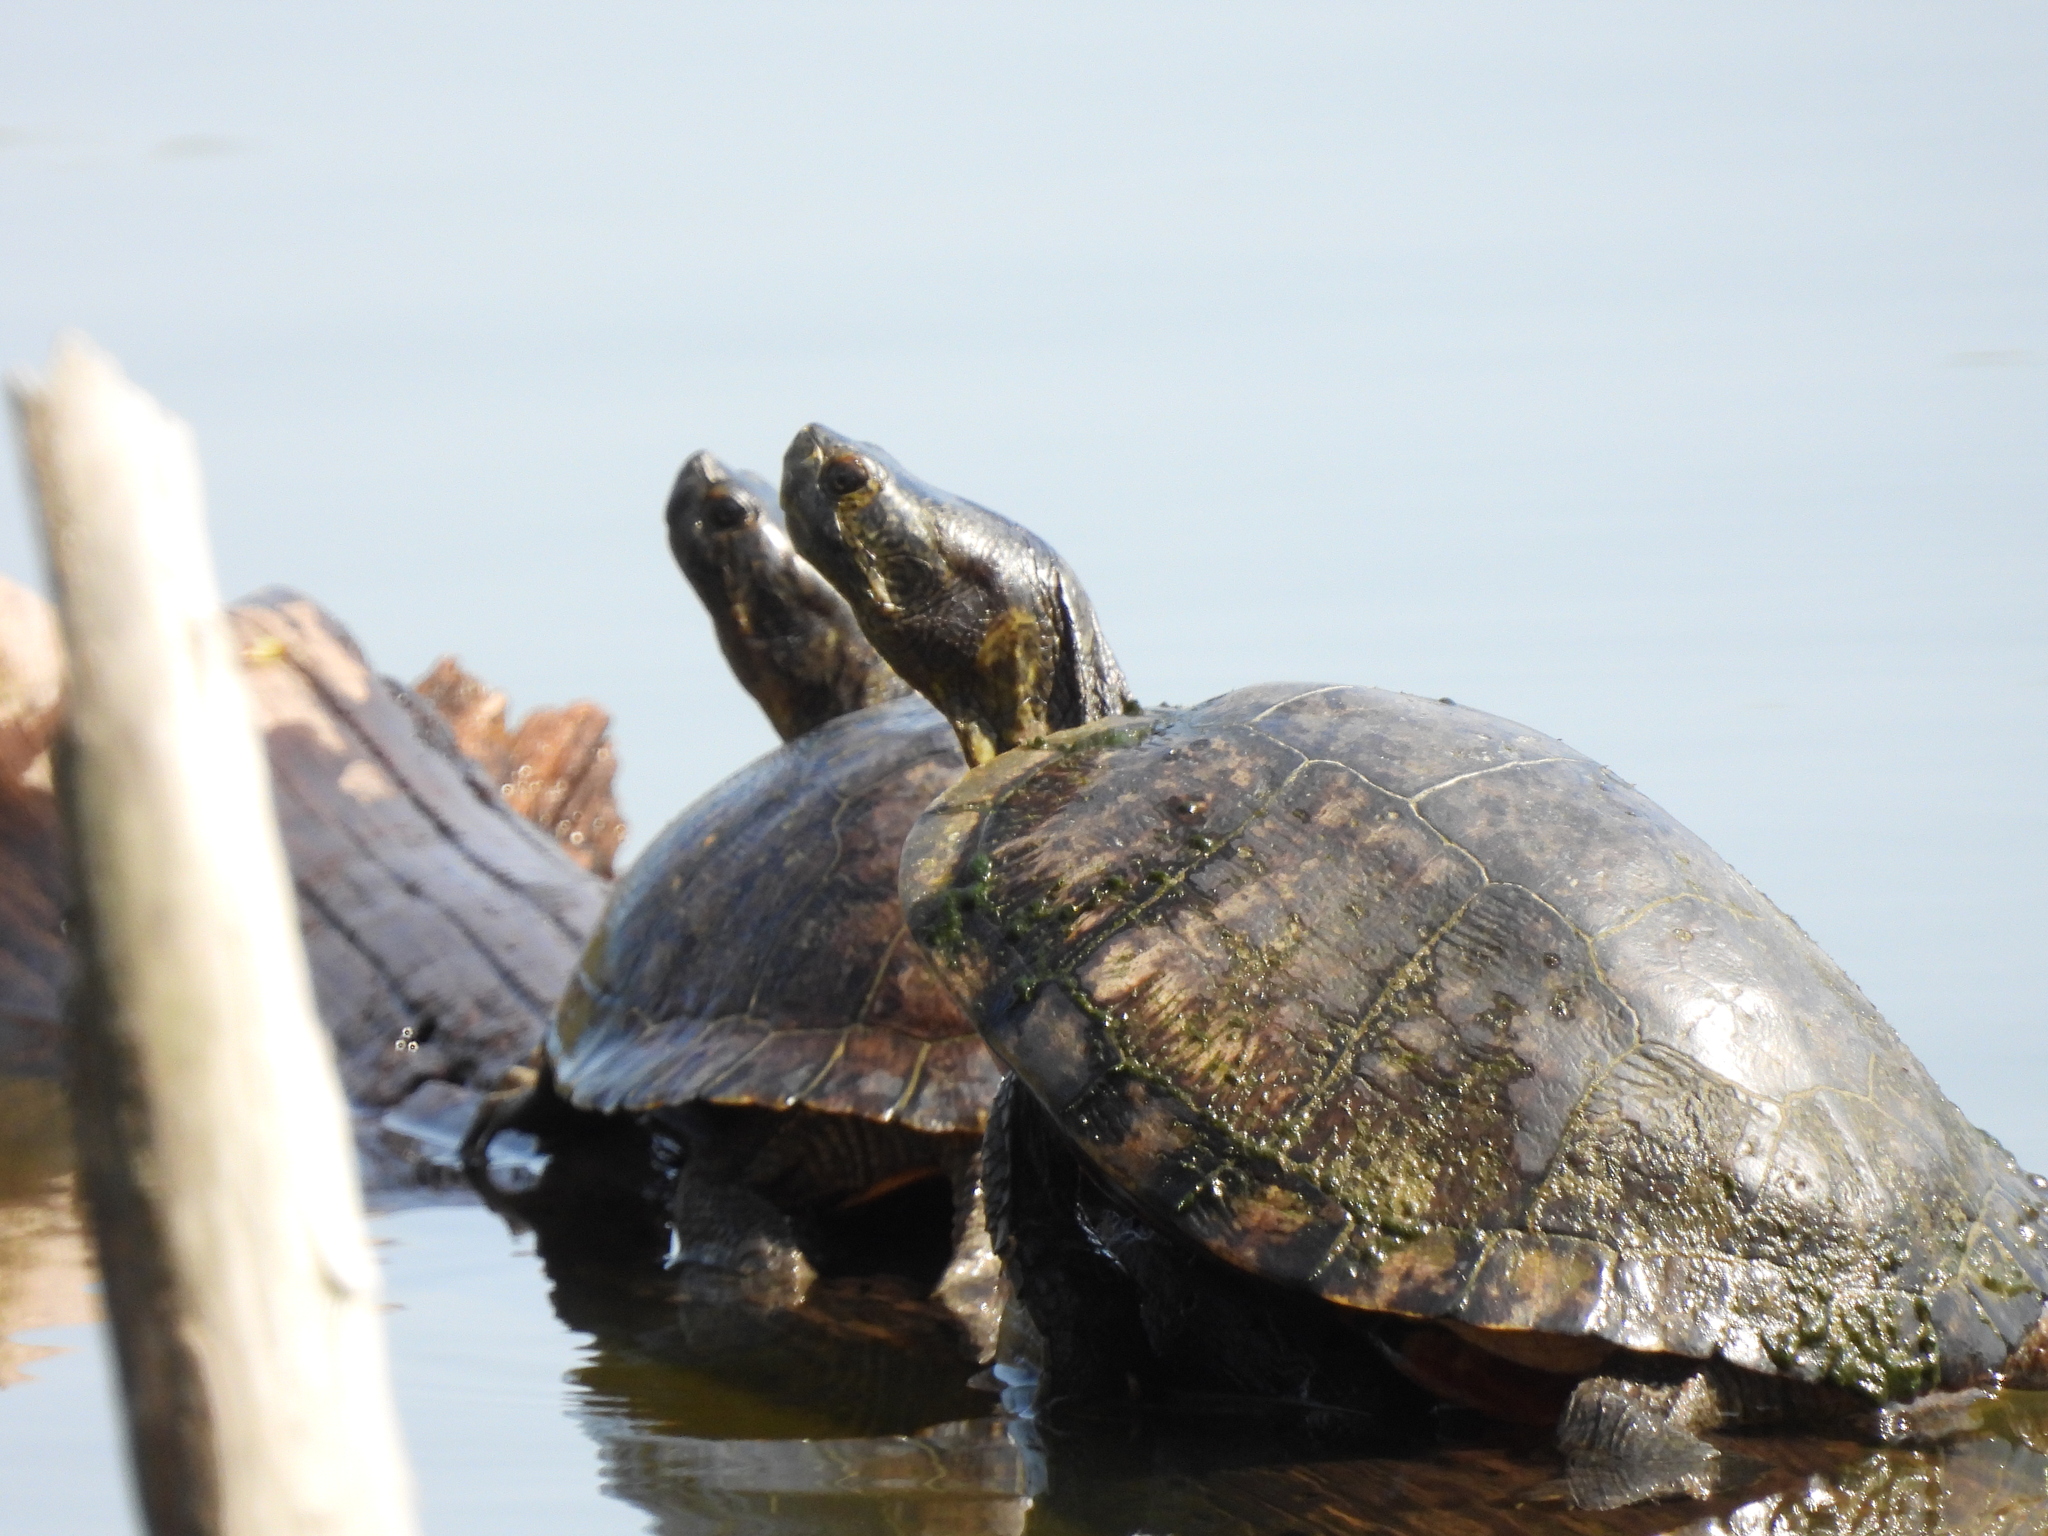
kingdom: Animalia
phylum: Chordata
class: Testudines
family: Emydidae
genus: Trachemys
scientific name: Trachemys scripta
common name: Slider
